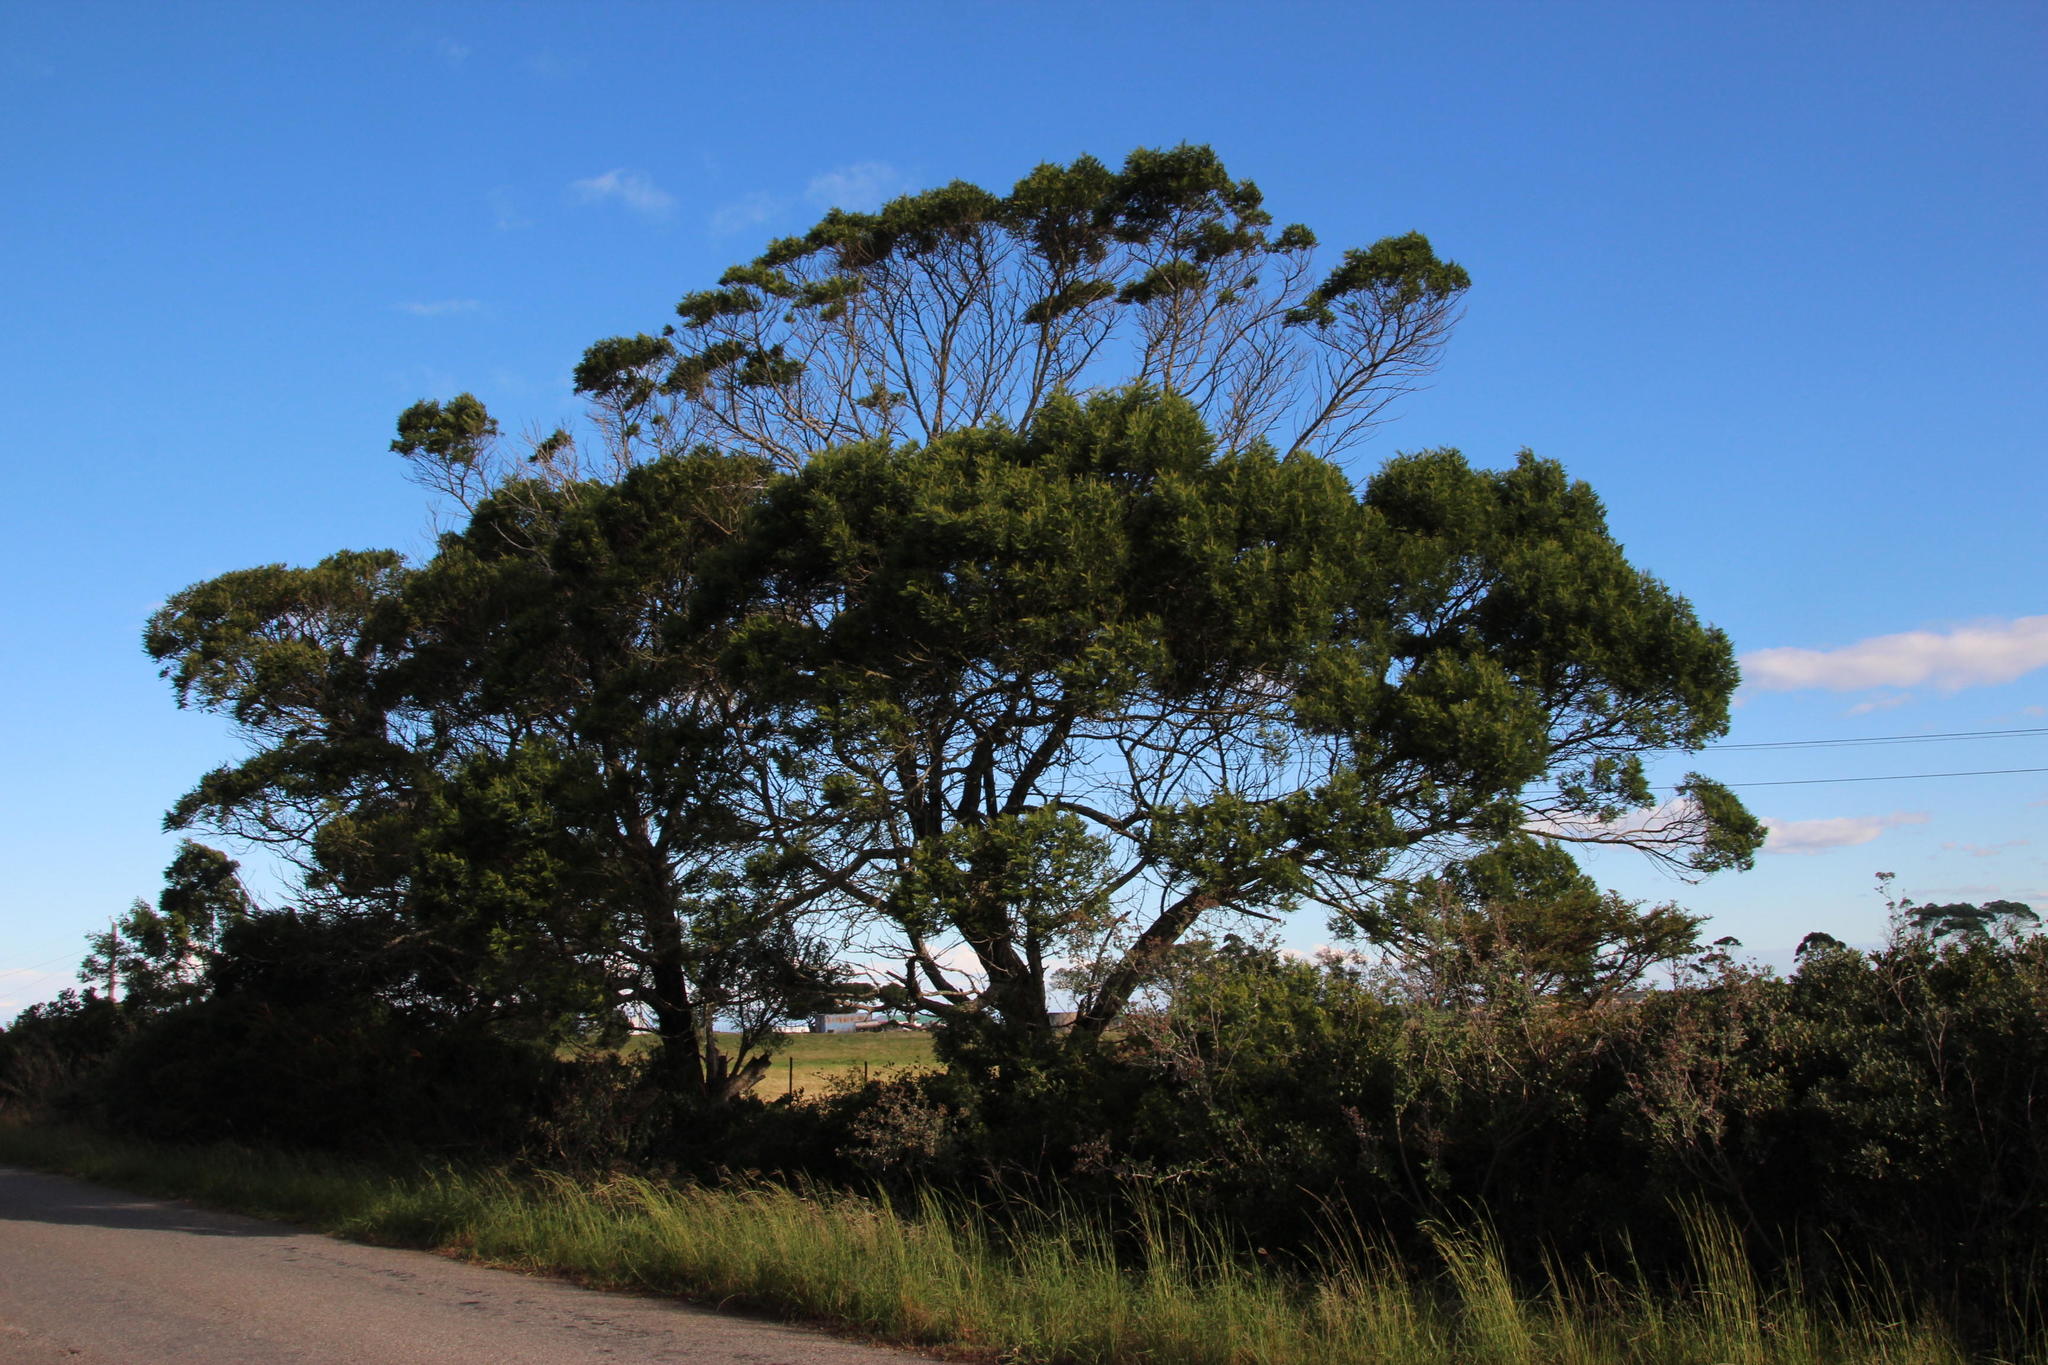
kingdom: Plantae
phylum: Tracheophyta
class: Magnoliopsida
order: Fabales
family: Fabaceae
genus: Acacia
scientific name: Acacia mearnsii
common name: Black wattle
